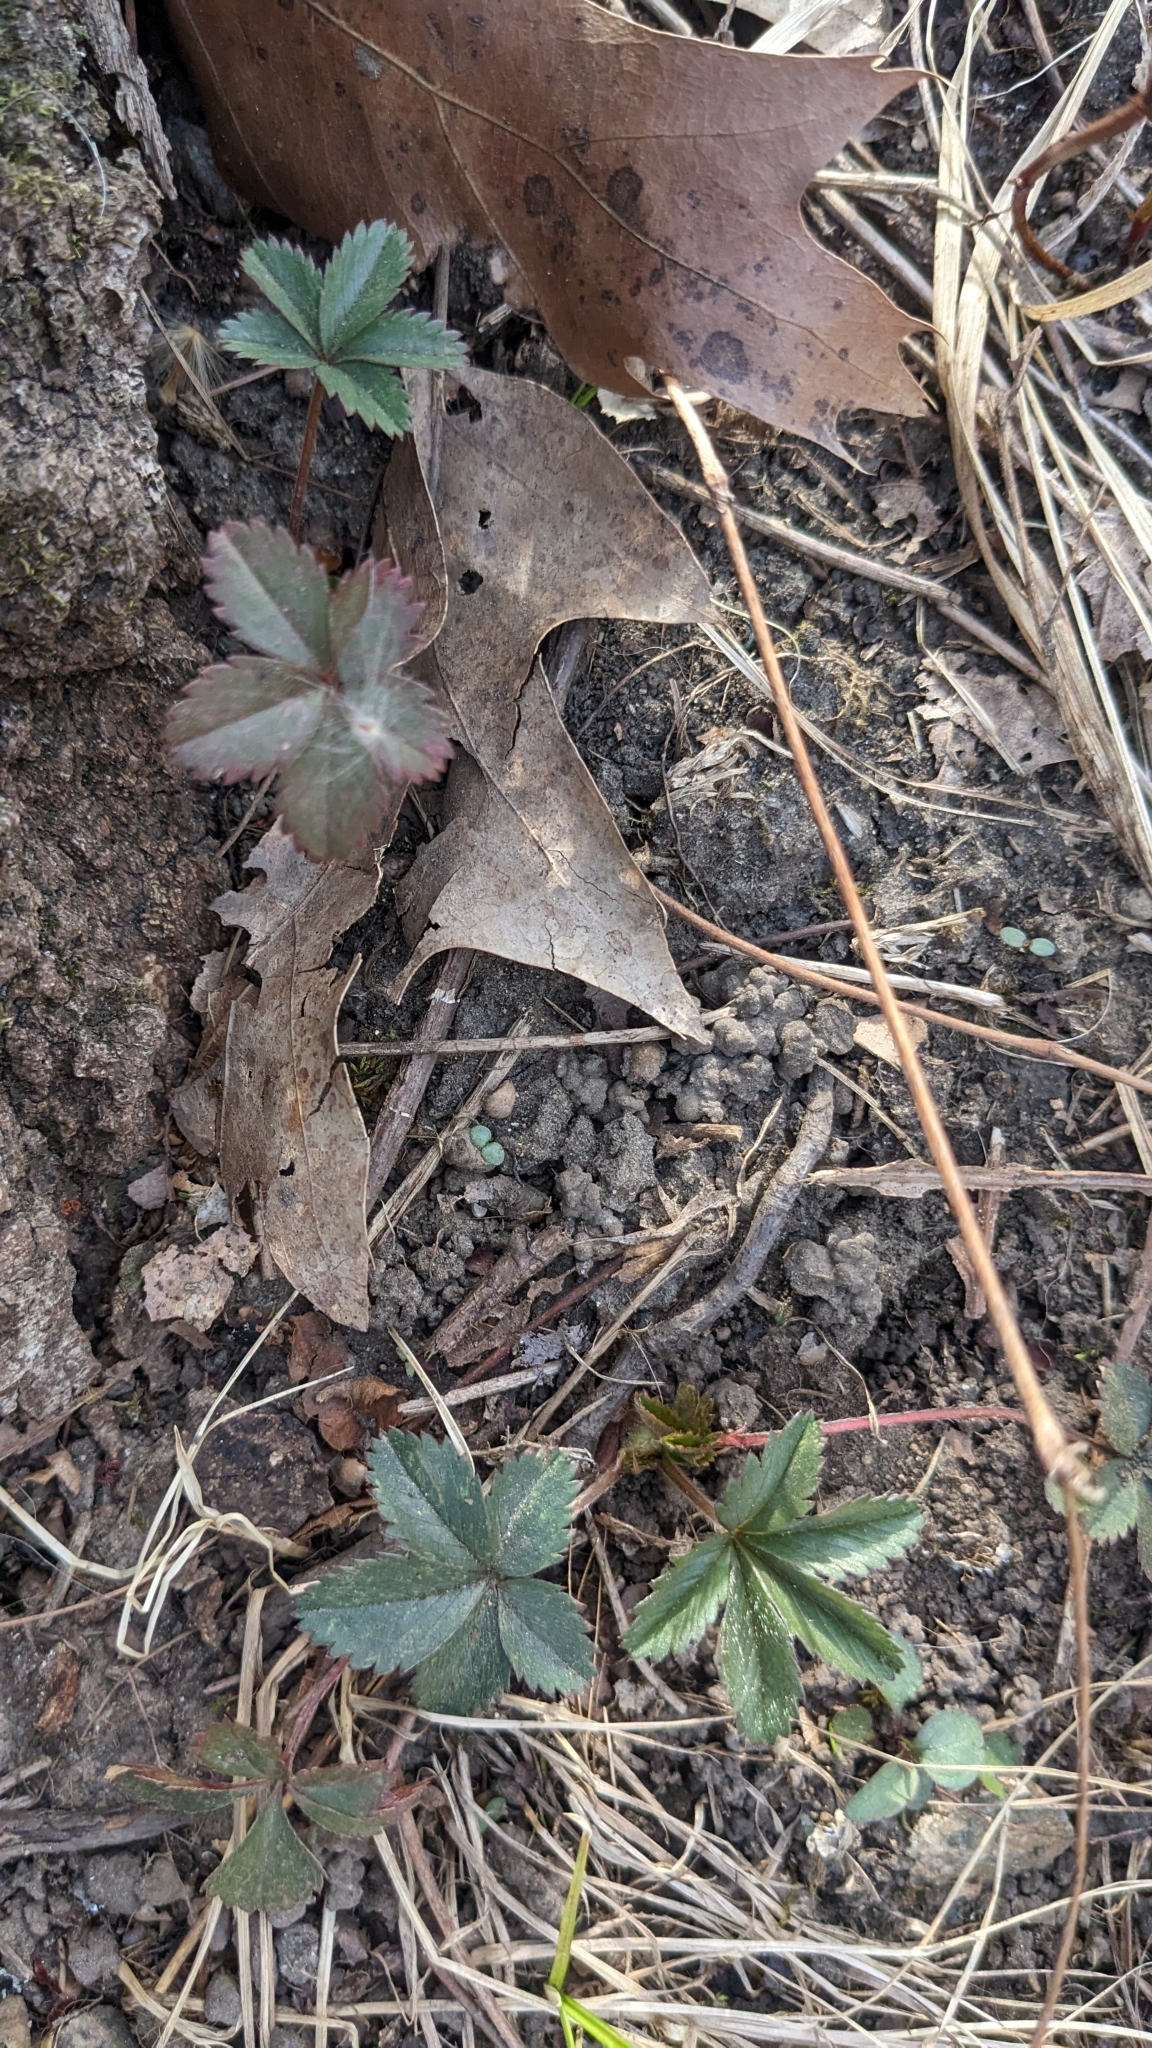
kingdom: Plantae
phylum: Tracheophyta
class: Magnoliopsida
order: Rosales
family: Rosaceae
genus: Potentilla
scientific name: Potentilla canadensis
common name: Canada cinquefoil
